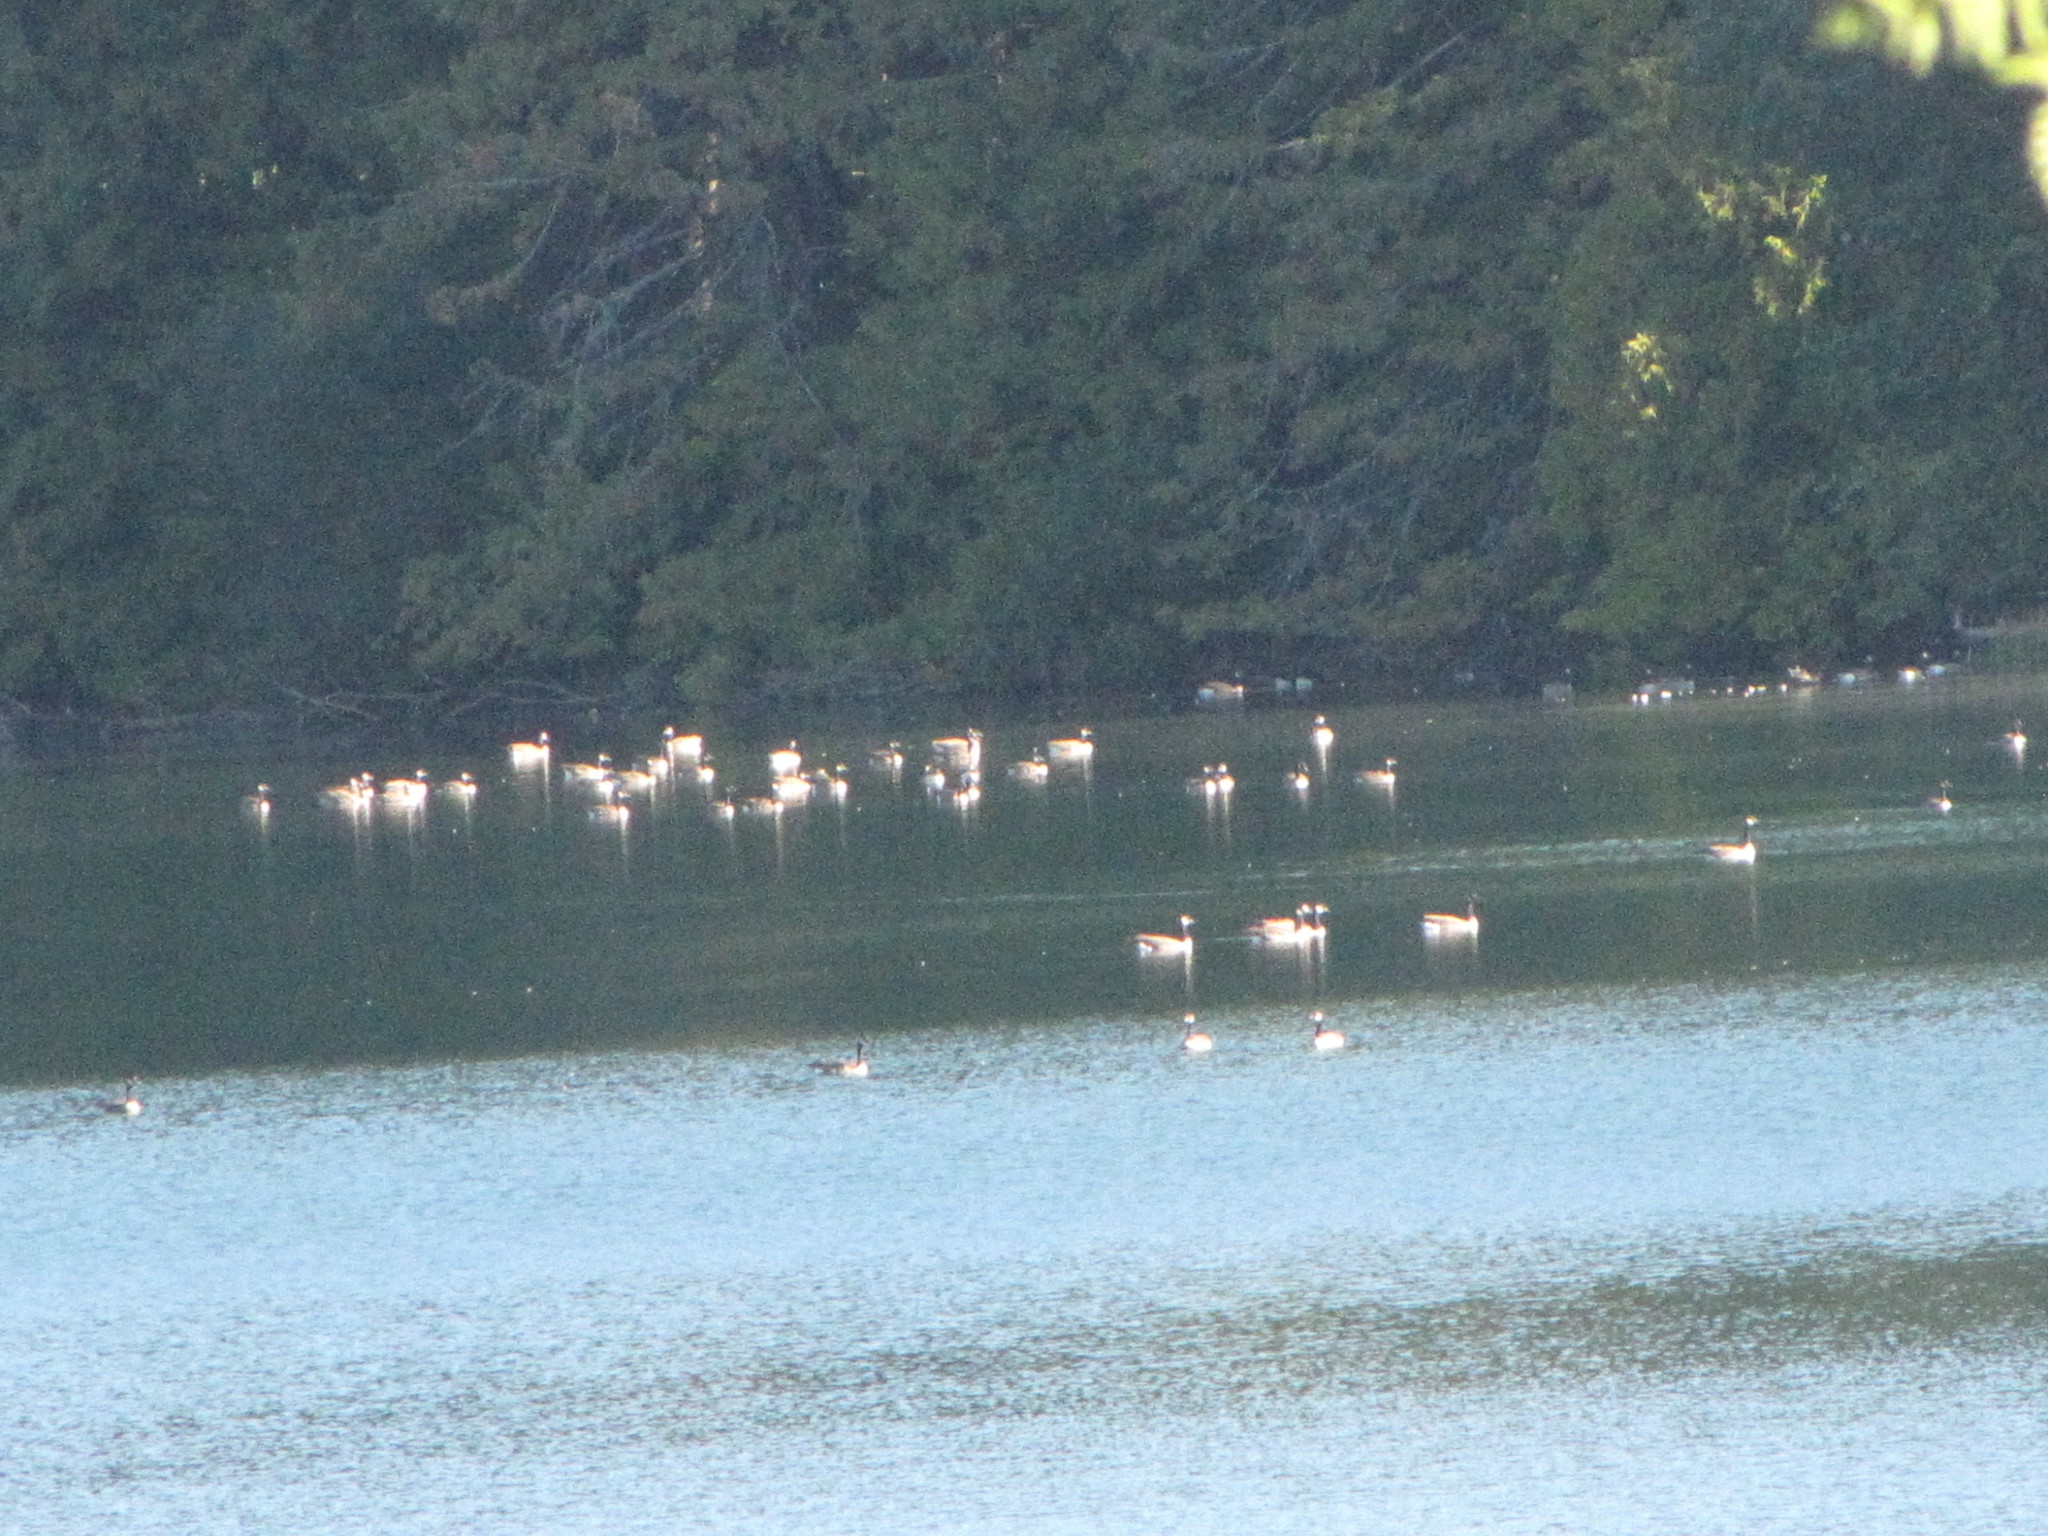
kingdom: Animalia
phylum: Chordata
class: Aves
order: Anseriformes
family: Anatidae
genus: Branta
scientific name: Branta canadensis
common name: Canada goose
